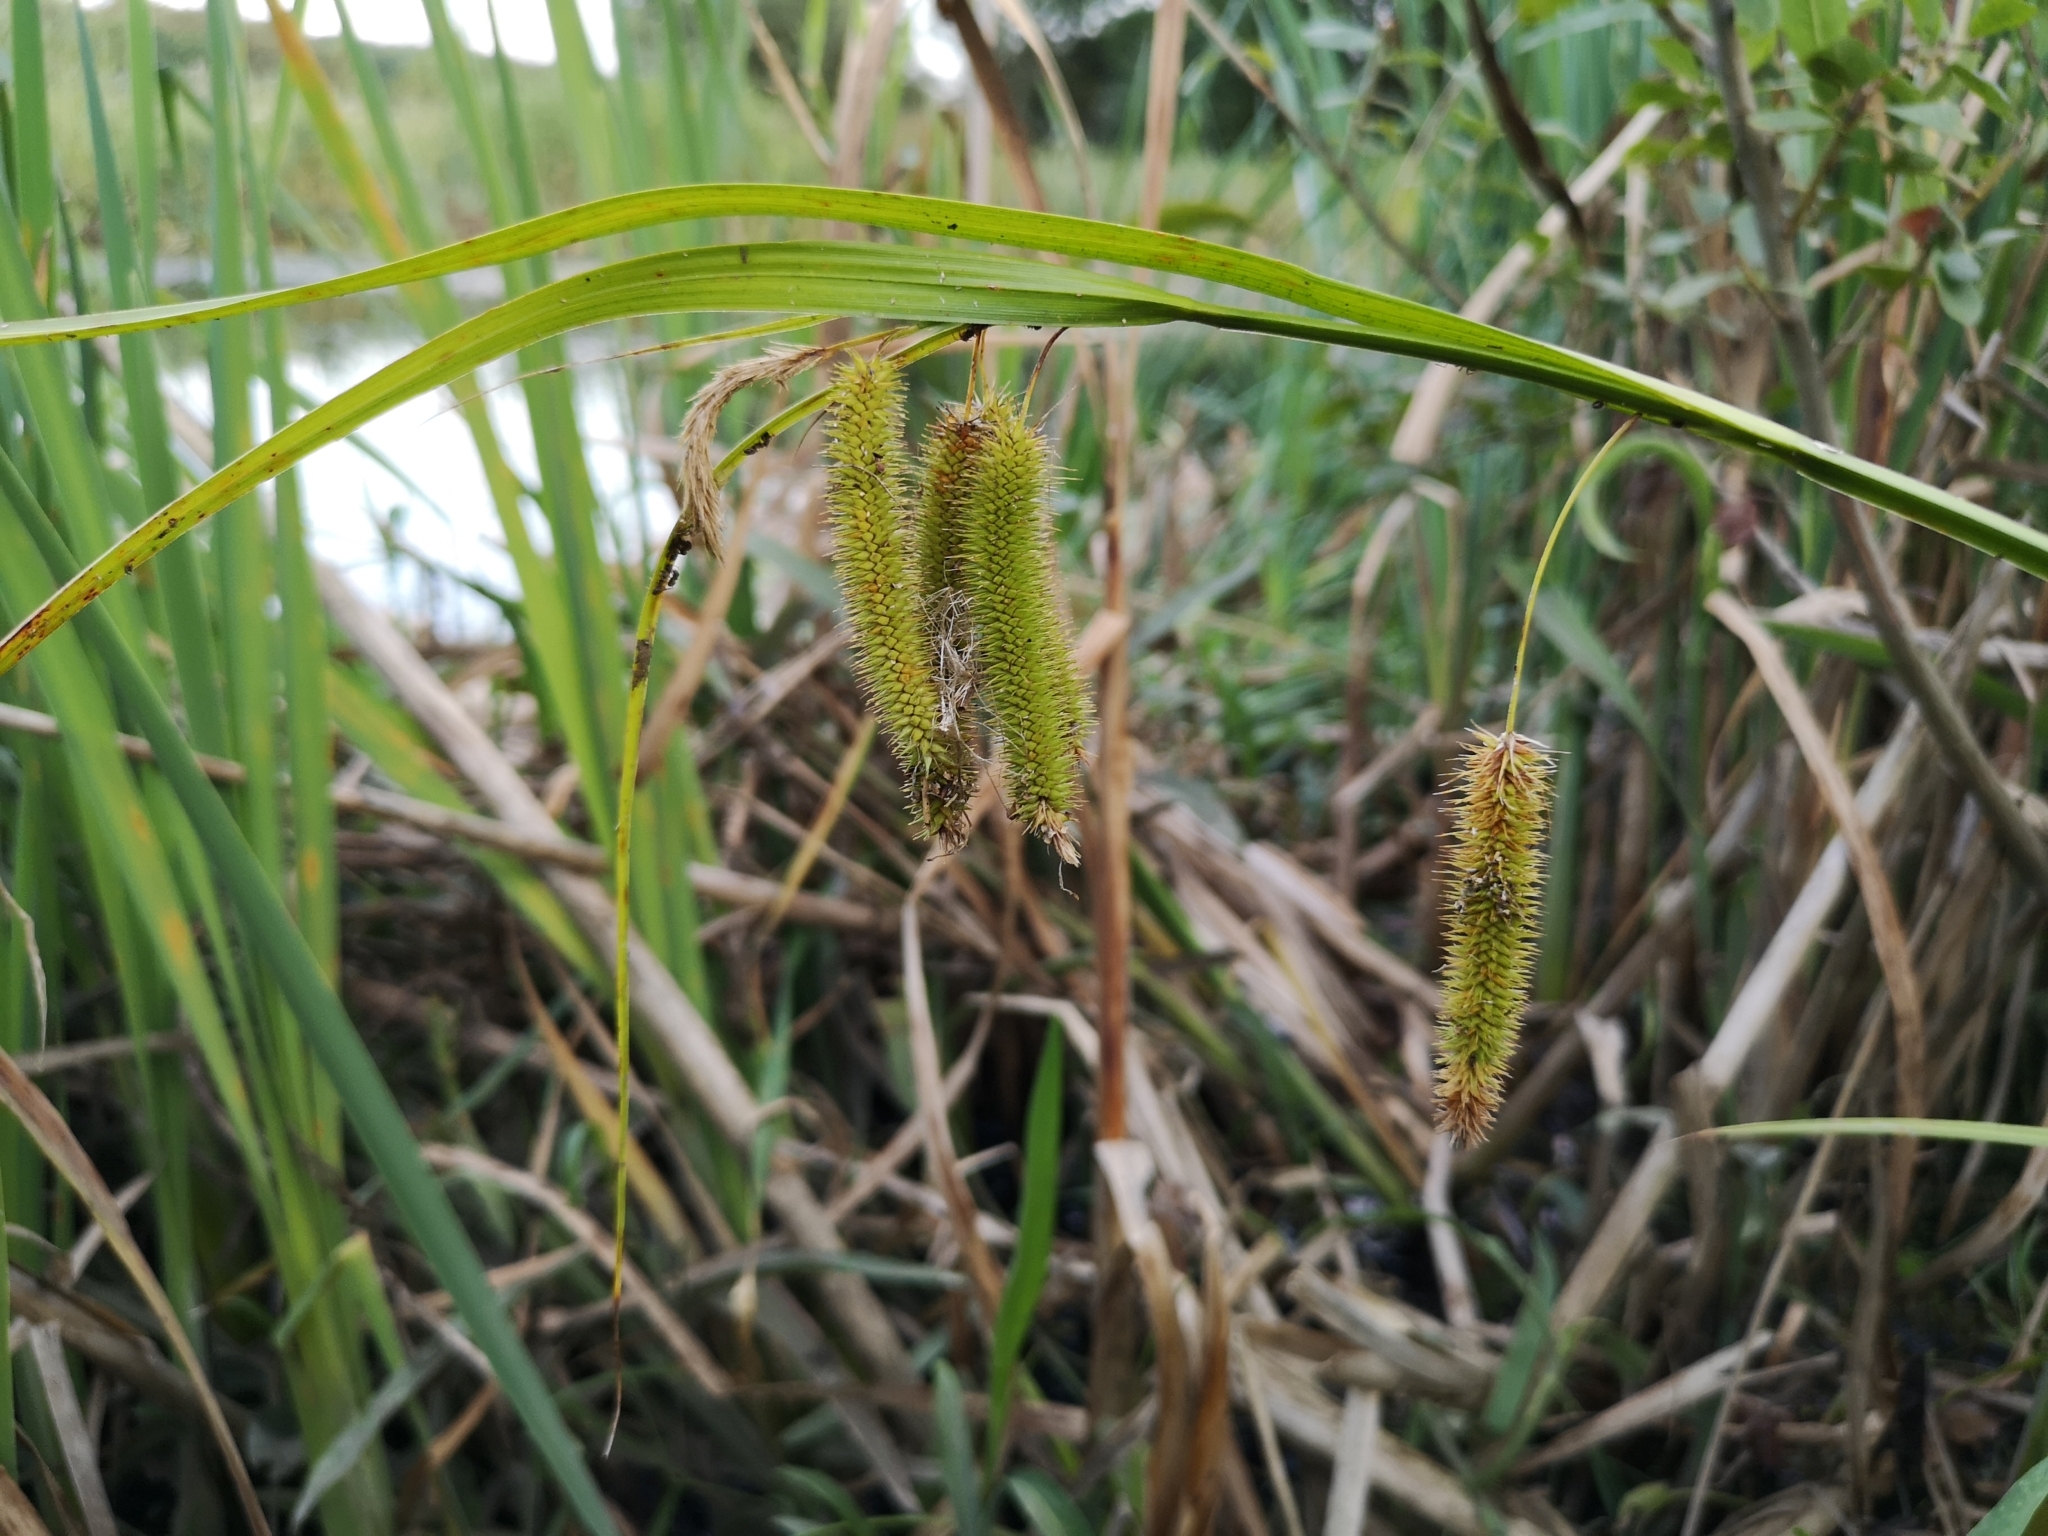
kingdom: Plantae
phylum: Tracheophyta
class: Liliopsida
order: Poales
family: Cyperaceae
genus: Carex
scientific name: Carex pseudocyperus
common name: Cyperus sedge
